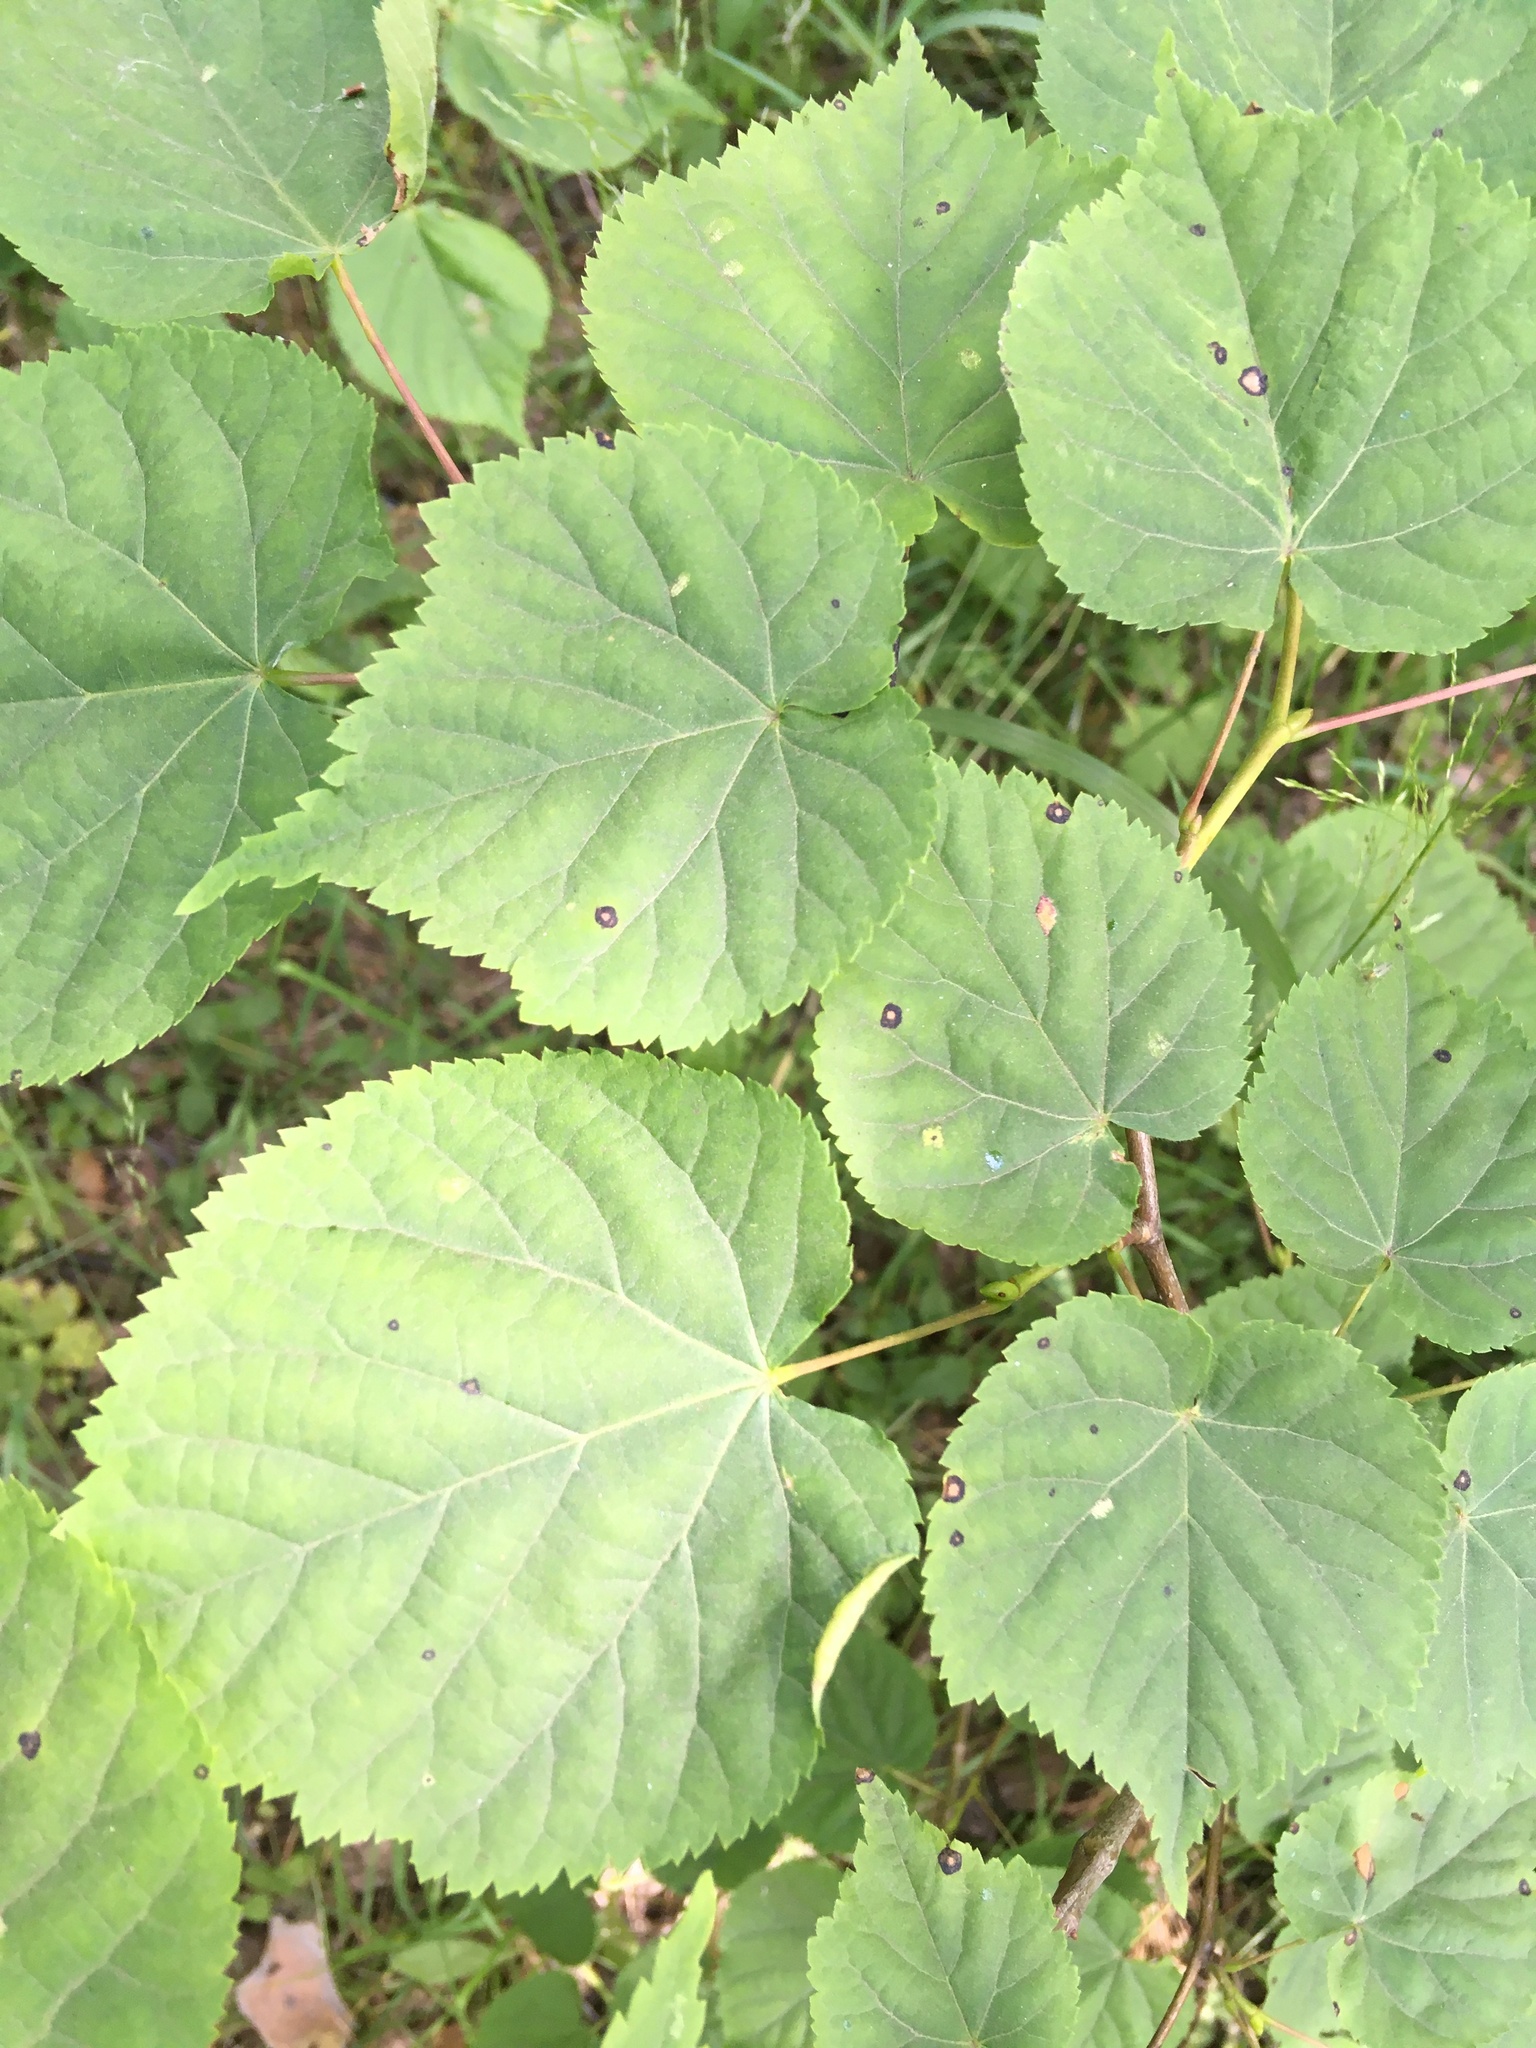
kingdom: Plantae
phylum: Tracheophyta
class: Magnoliopsida
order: Malvales
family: Malvaceae
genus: Tilia
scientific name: Tilia cordata
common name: Small-leaved lime
